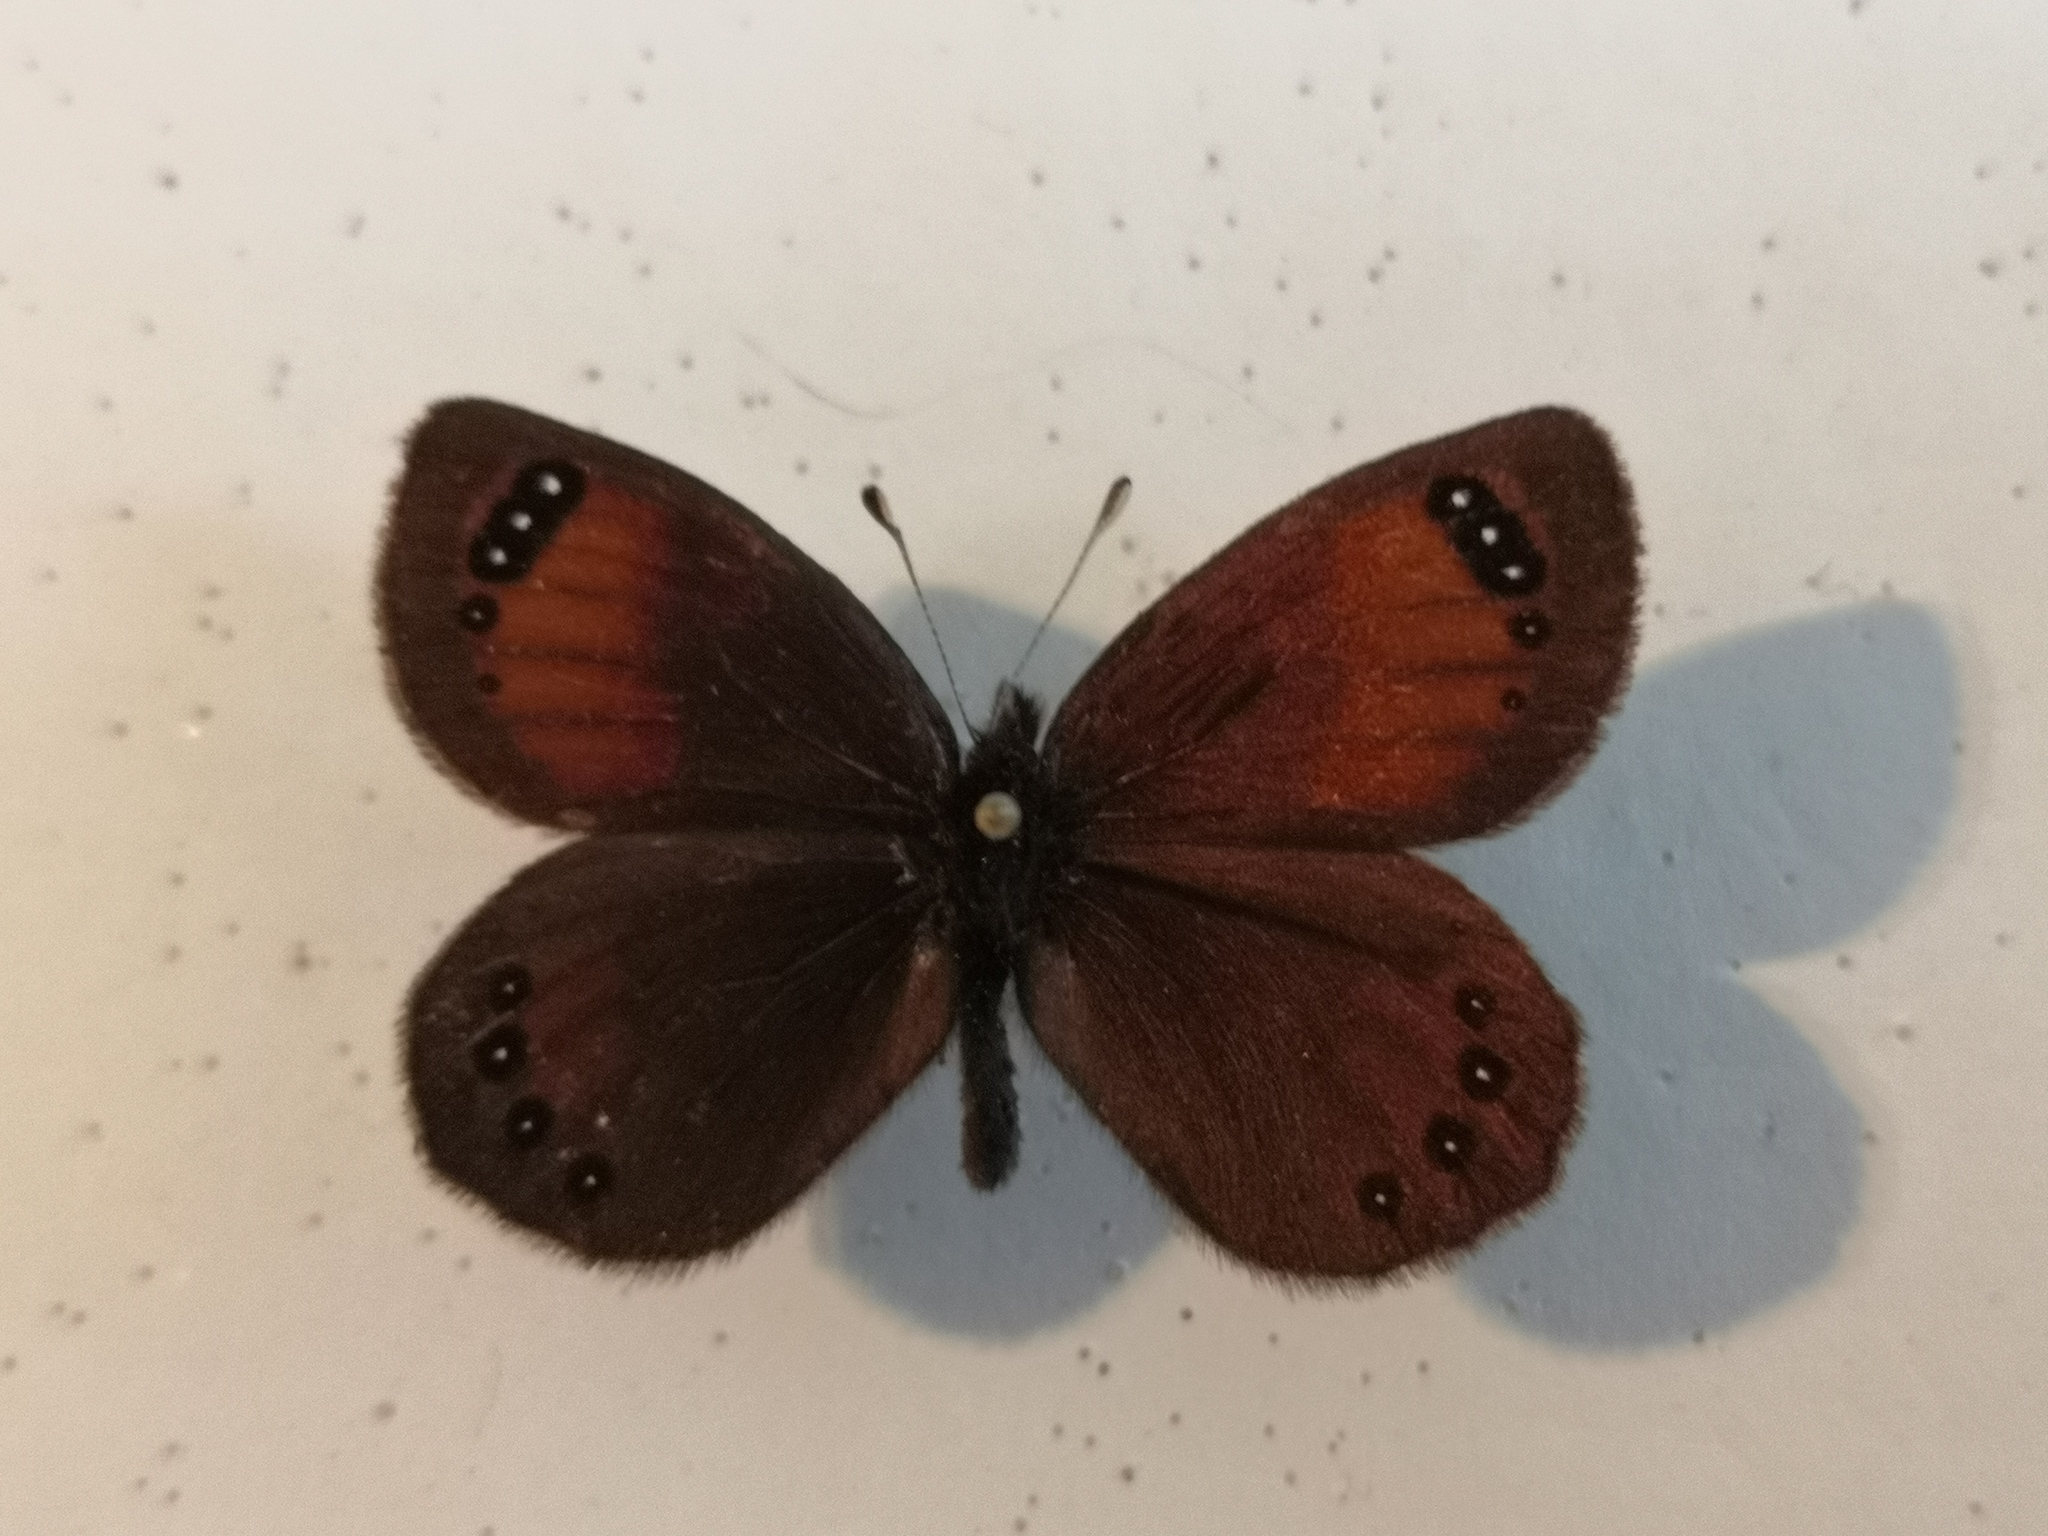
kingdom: Animalia
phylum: Arthropoda
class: Insecta
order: Lepidoptera
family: Nymphalidae
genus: Erebia
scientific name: Erebia gorge
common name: Silky ringlet
